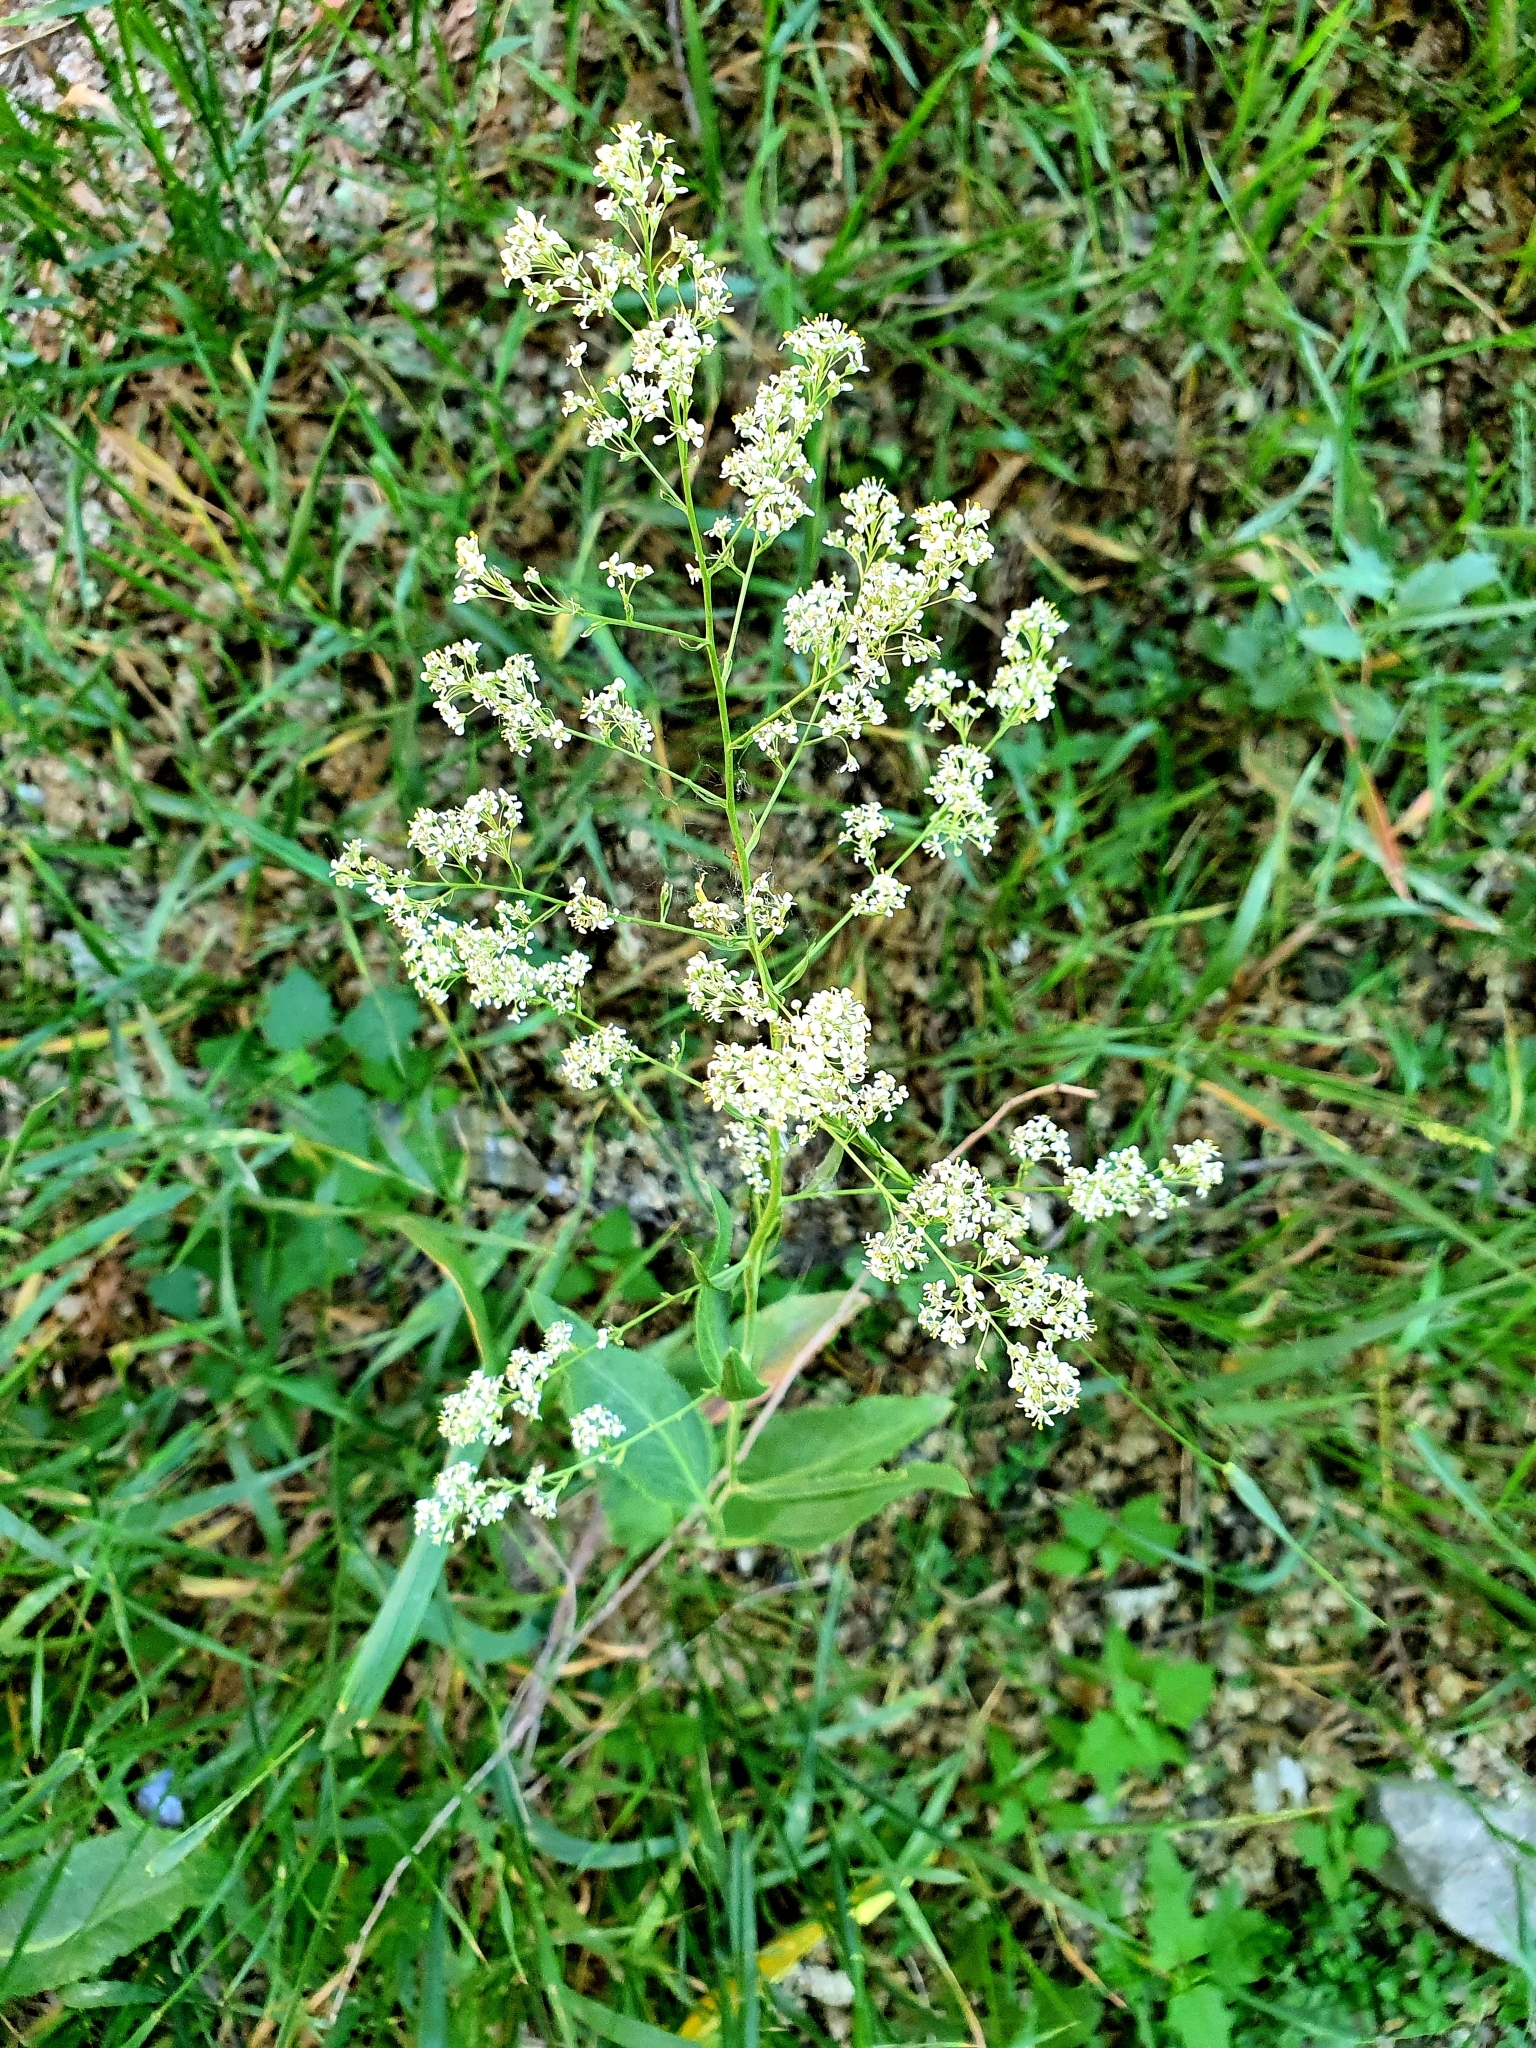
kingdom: Plantae
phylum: Tracheophyta
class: Magnoliopsida
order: Brassicales
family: Brassicaceae
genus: Lepidium
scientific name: Lepidium latifolium
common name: Dittander
